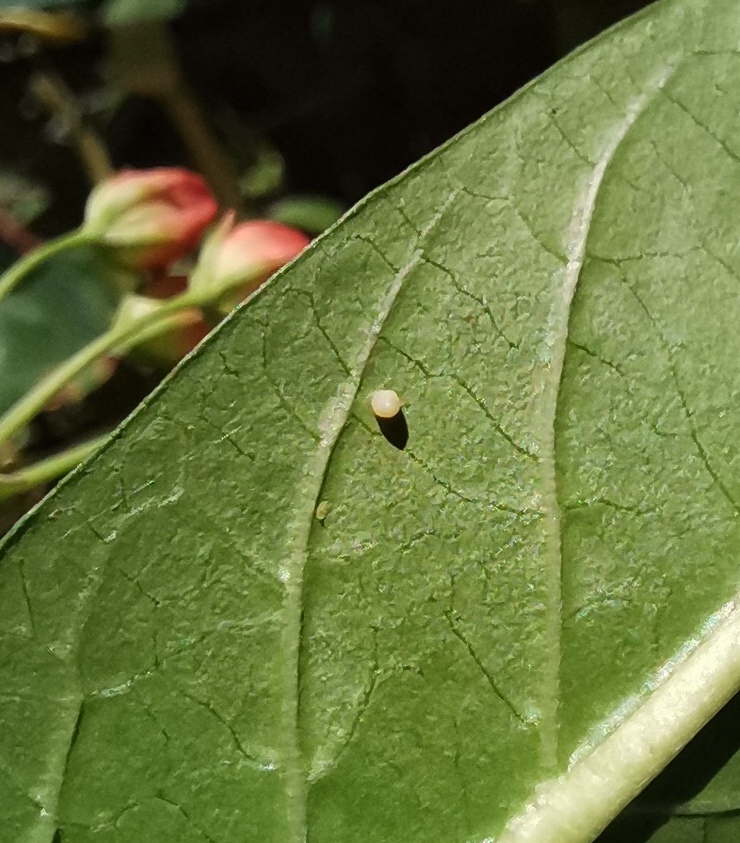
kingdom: Animalia
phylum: Arthropoda
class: Insecta
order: Lepidoptera
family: Nymphalidae
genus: Danaus
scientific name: Danaus plexippus
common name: Monarch
